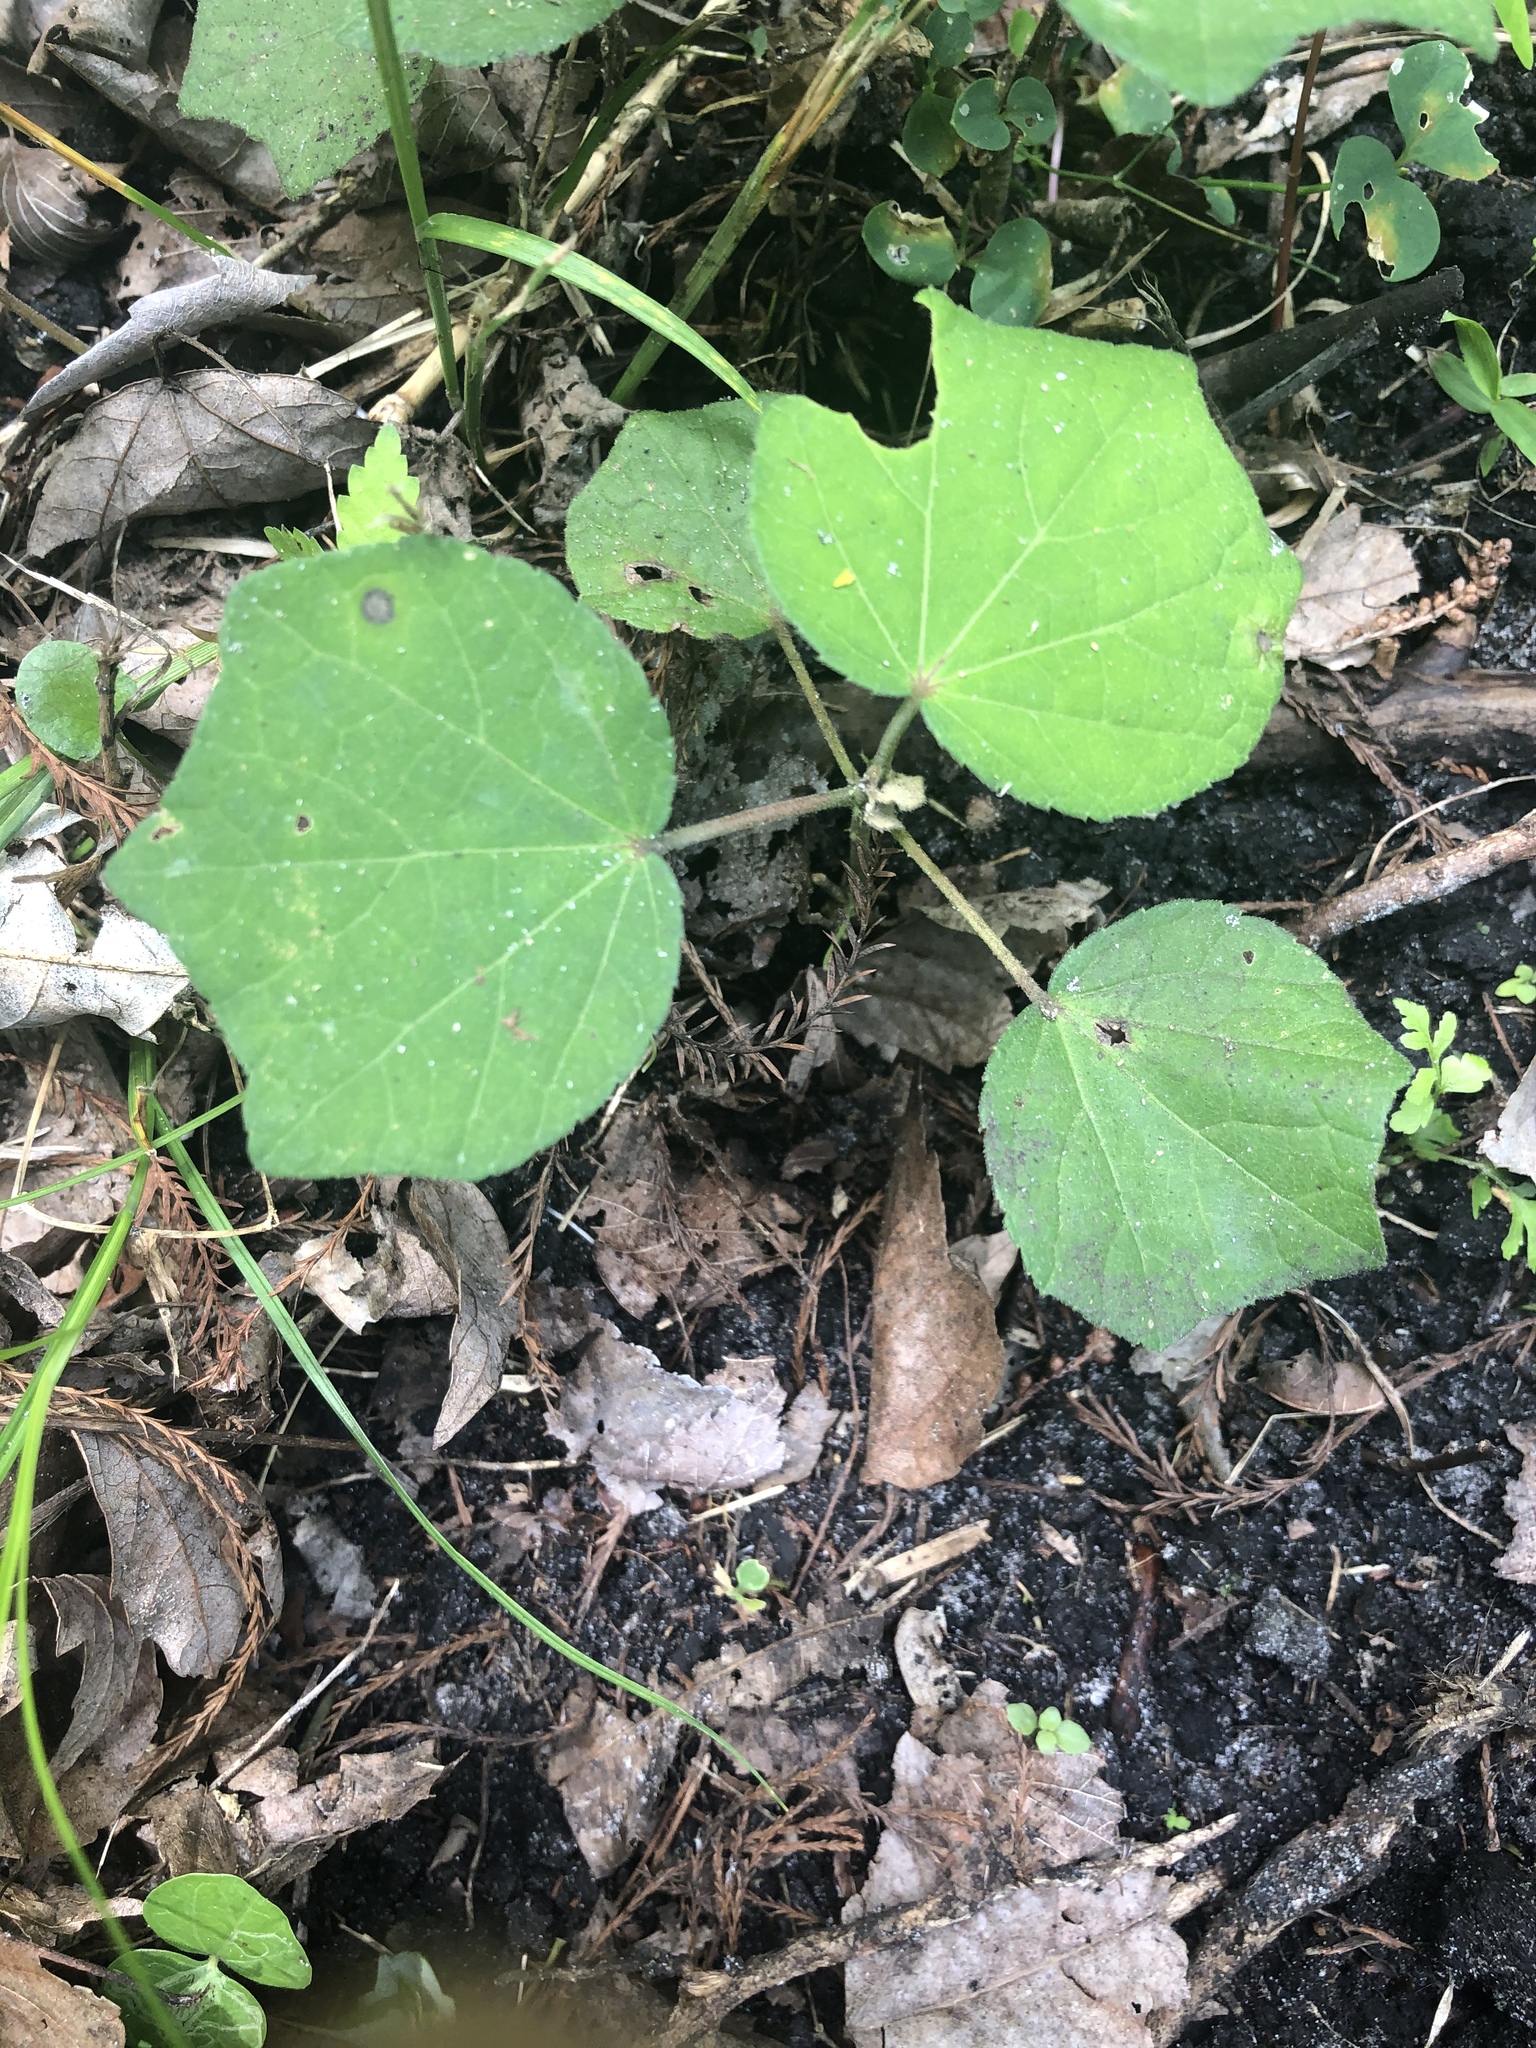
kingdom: Plantae
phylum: Tracheophyta
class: Magnoliopsida
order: Malvales
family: Malvaceae
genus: Urena
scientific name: Urena lobata
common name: Caesarweed
